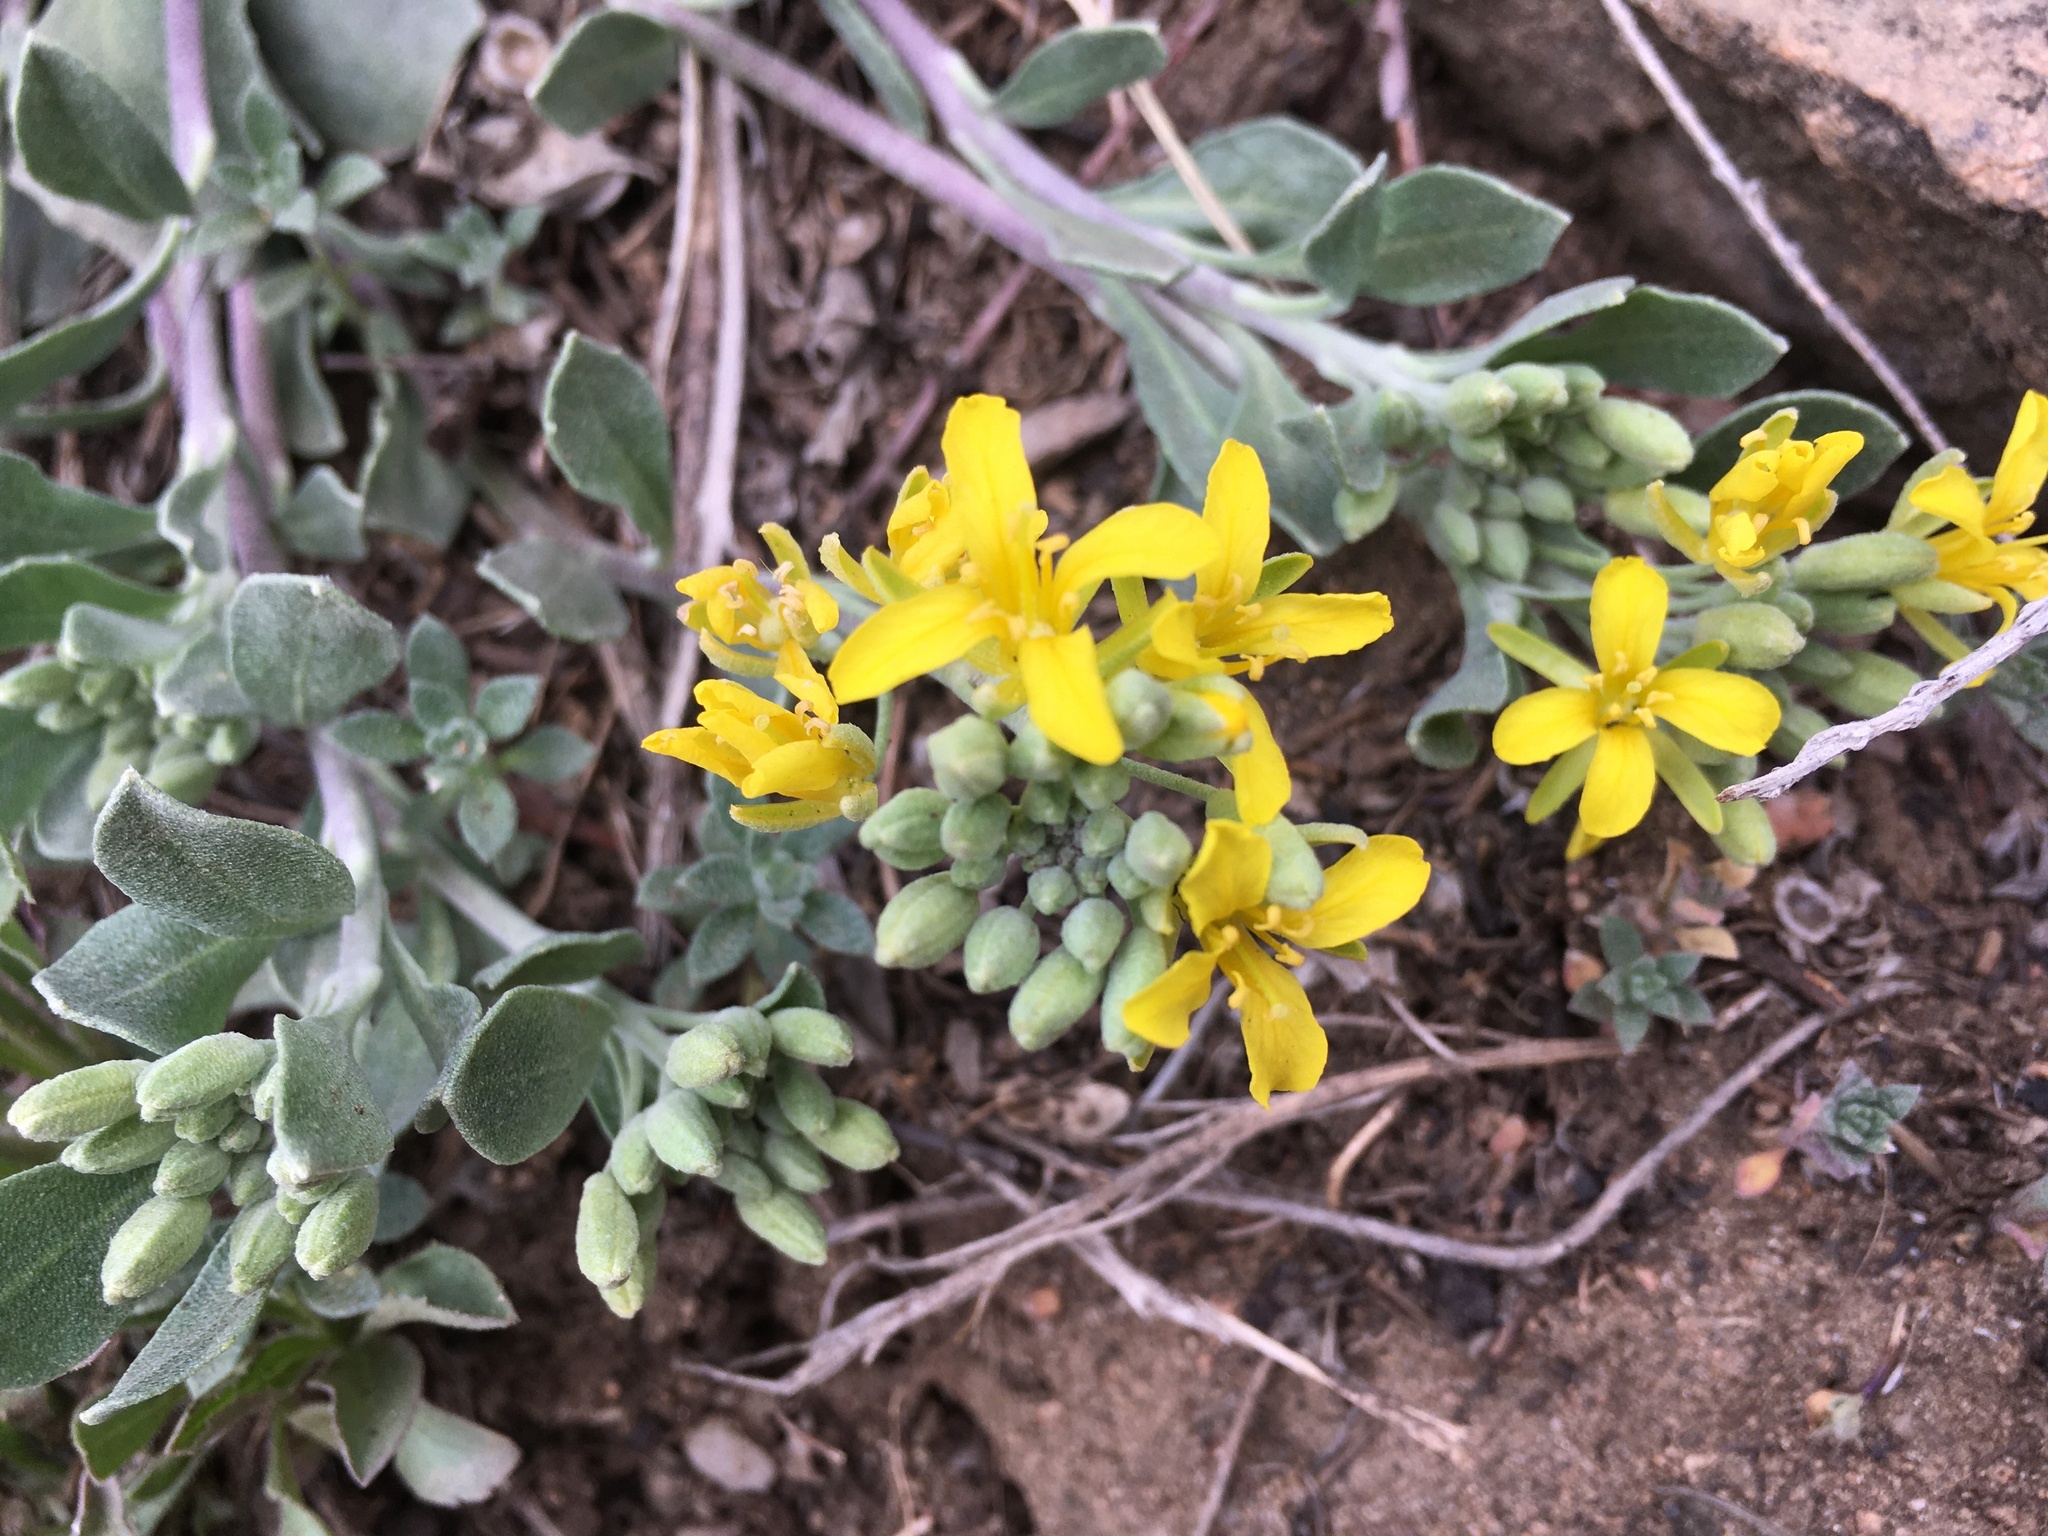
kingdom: Plantae
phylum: Tracheophyta
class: Magnoliopsida
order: Brassicales
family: Brassicaceae
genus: Physaria
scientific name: Physaria vitulifera
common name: Roundtrip twinpod
